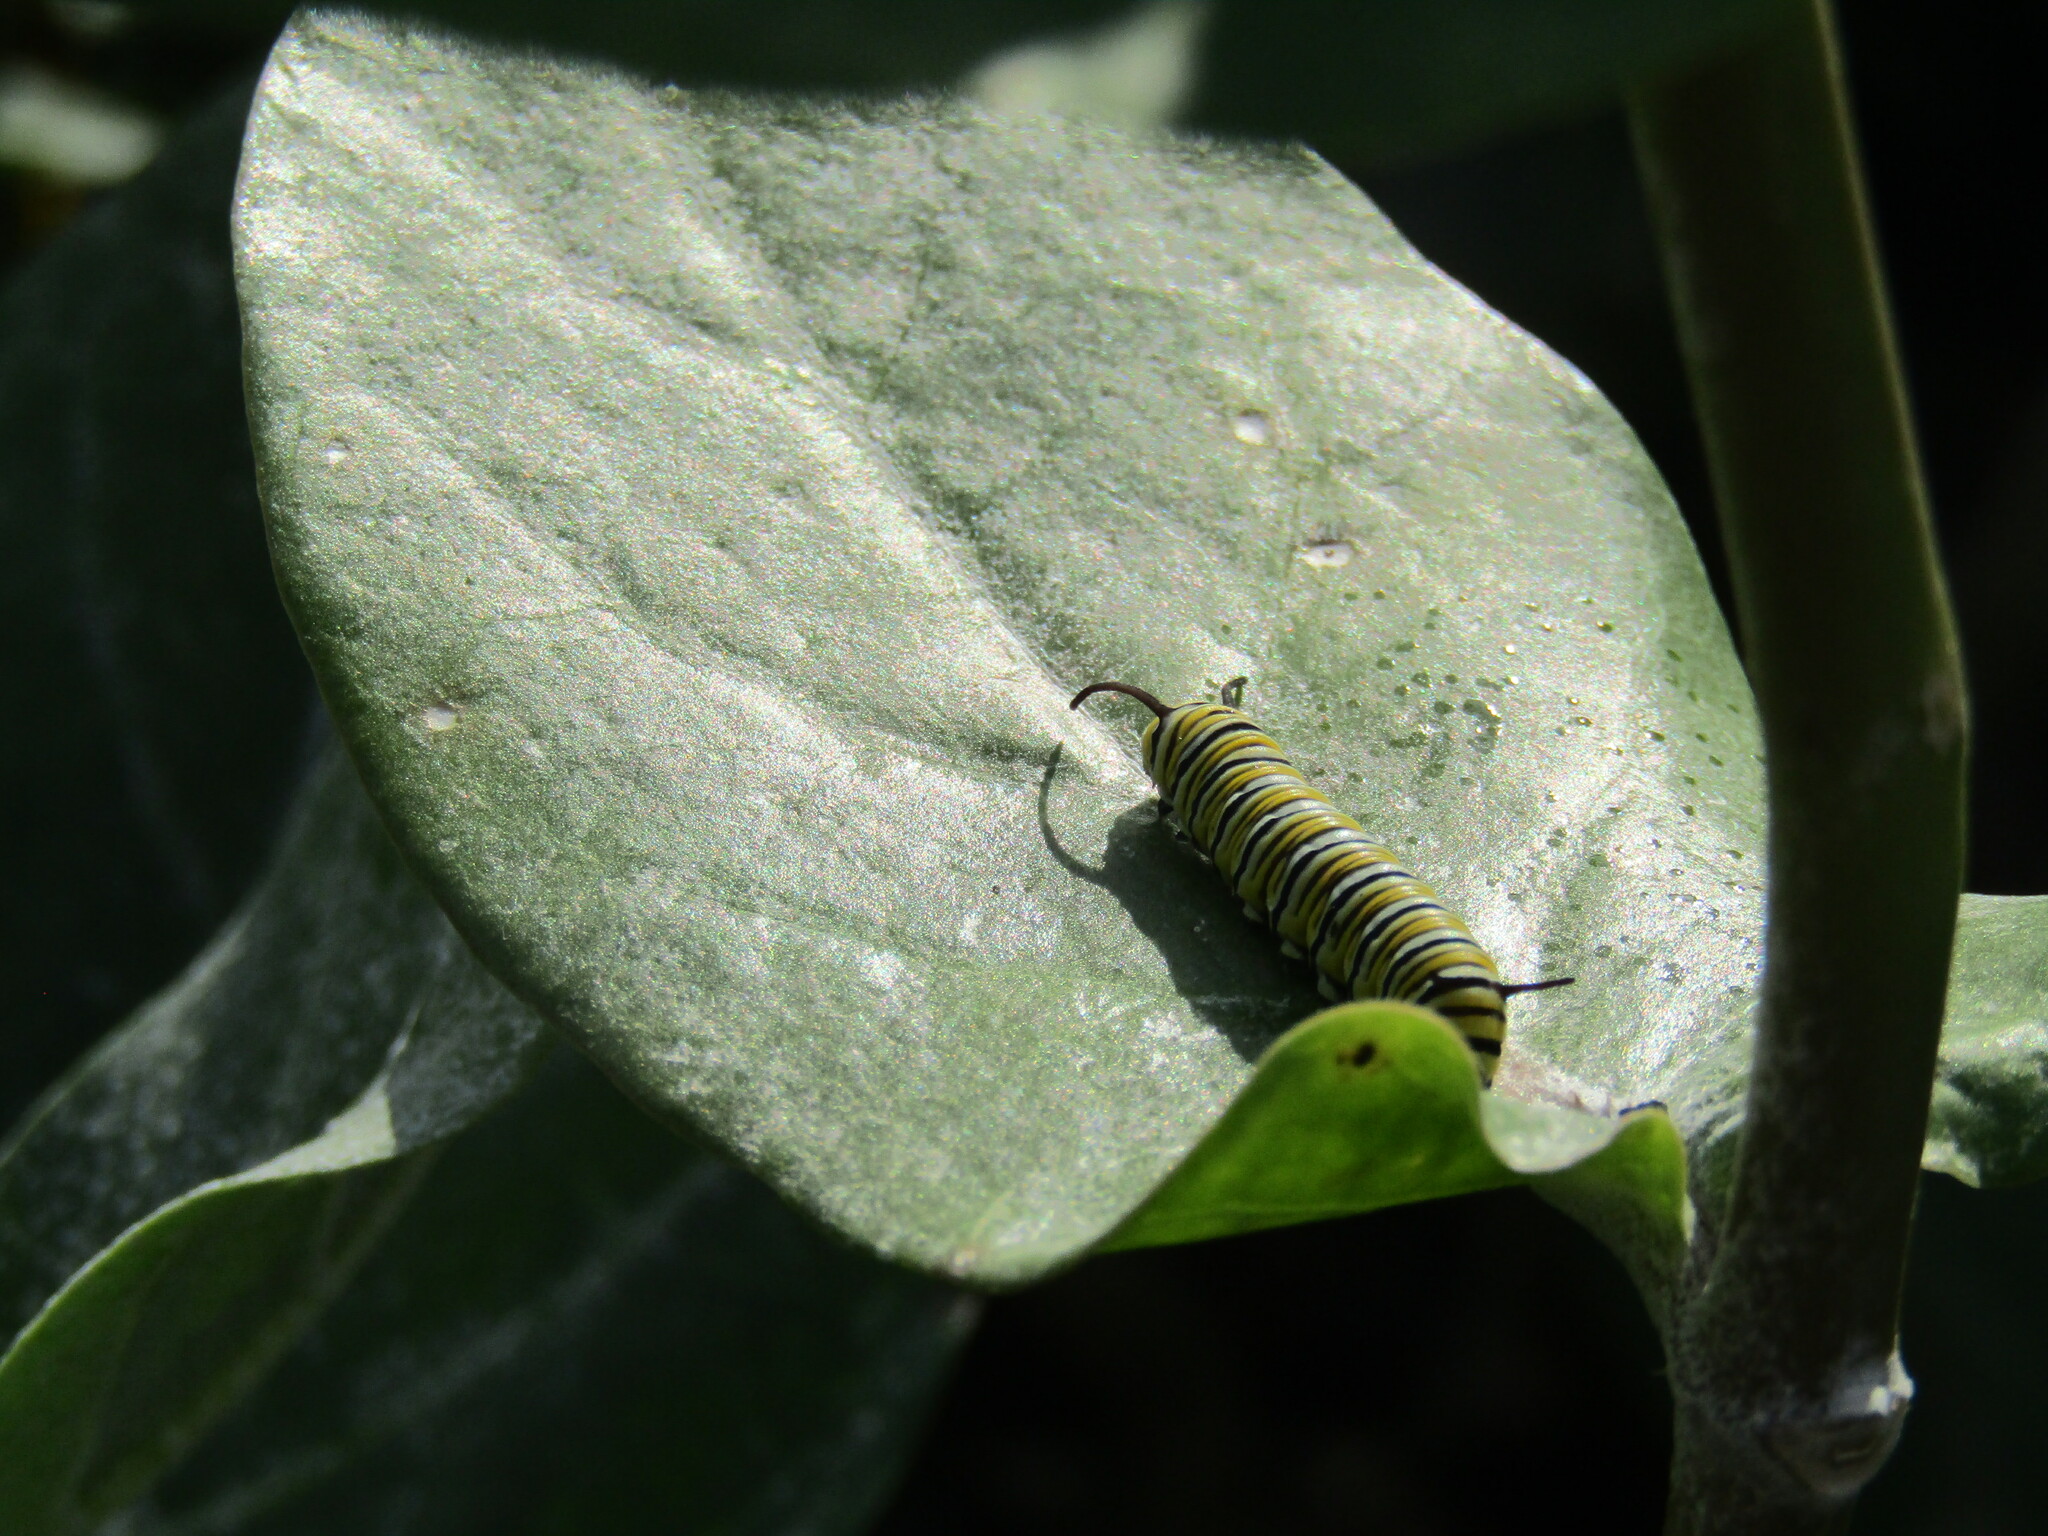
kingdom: Animalia
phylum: Arthropoda
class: Insecta
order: Lepidoptera
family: Nymphalidae
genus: Danaus
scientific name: Danaus plexippus
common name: Monarch
